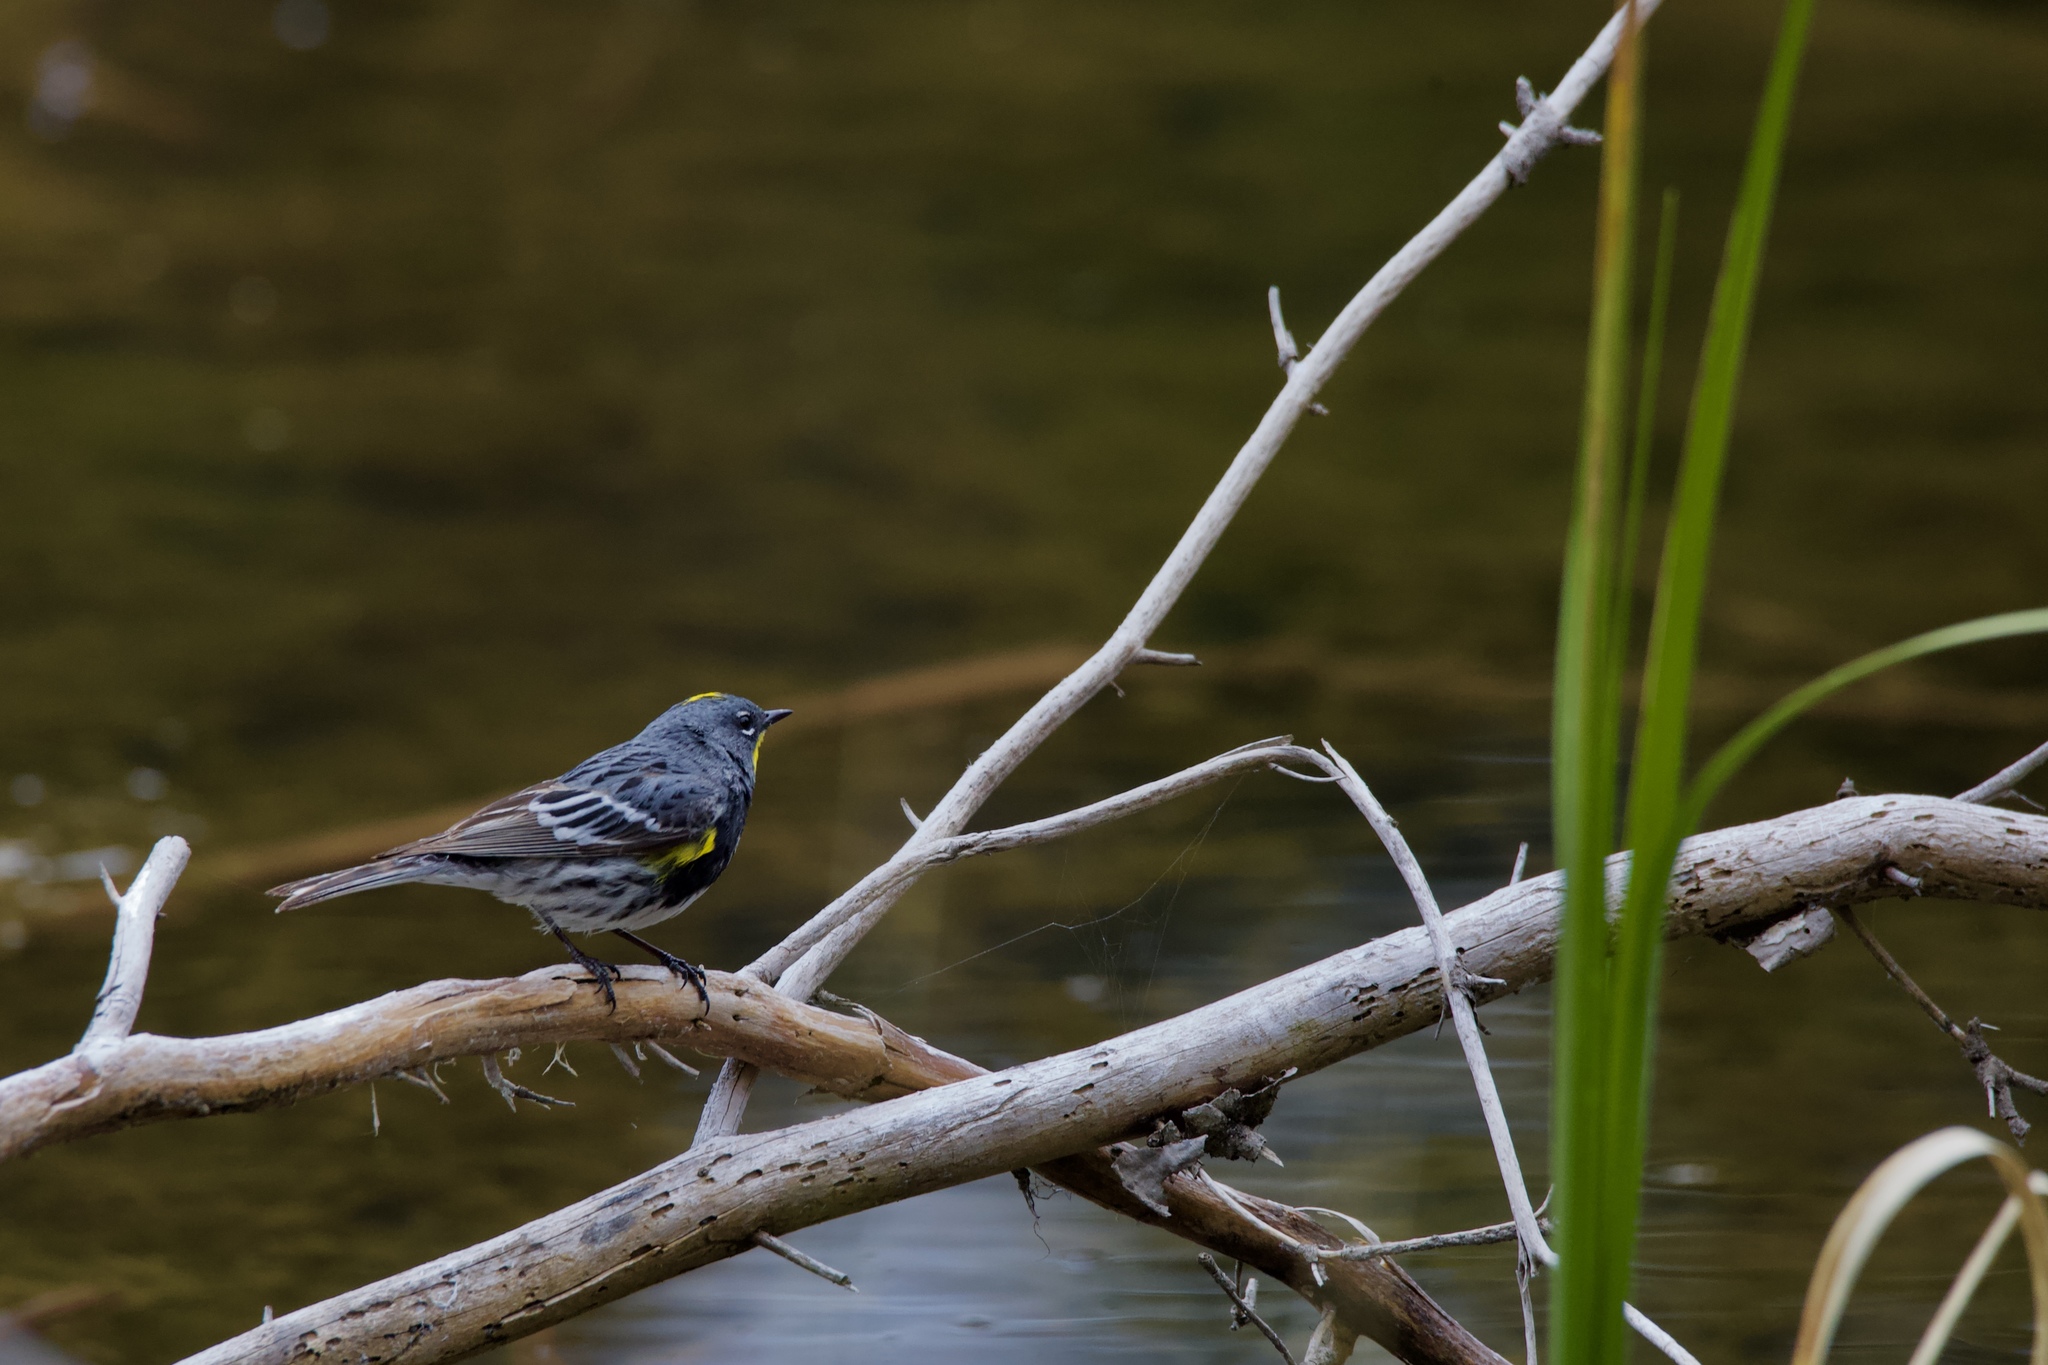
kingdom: Animalia
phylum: Chordata
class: Aves
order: Passeriformes
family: Parulidae
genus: Setophaga
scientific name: Setophaga coronata
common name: Myrtle warbler
